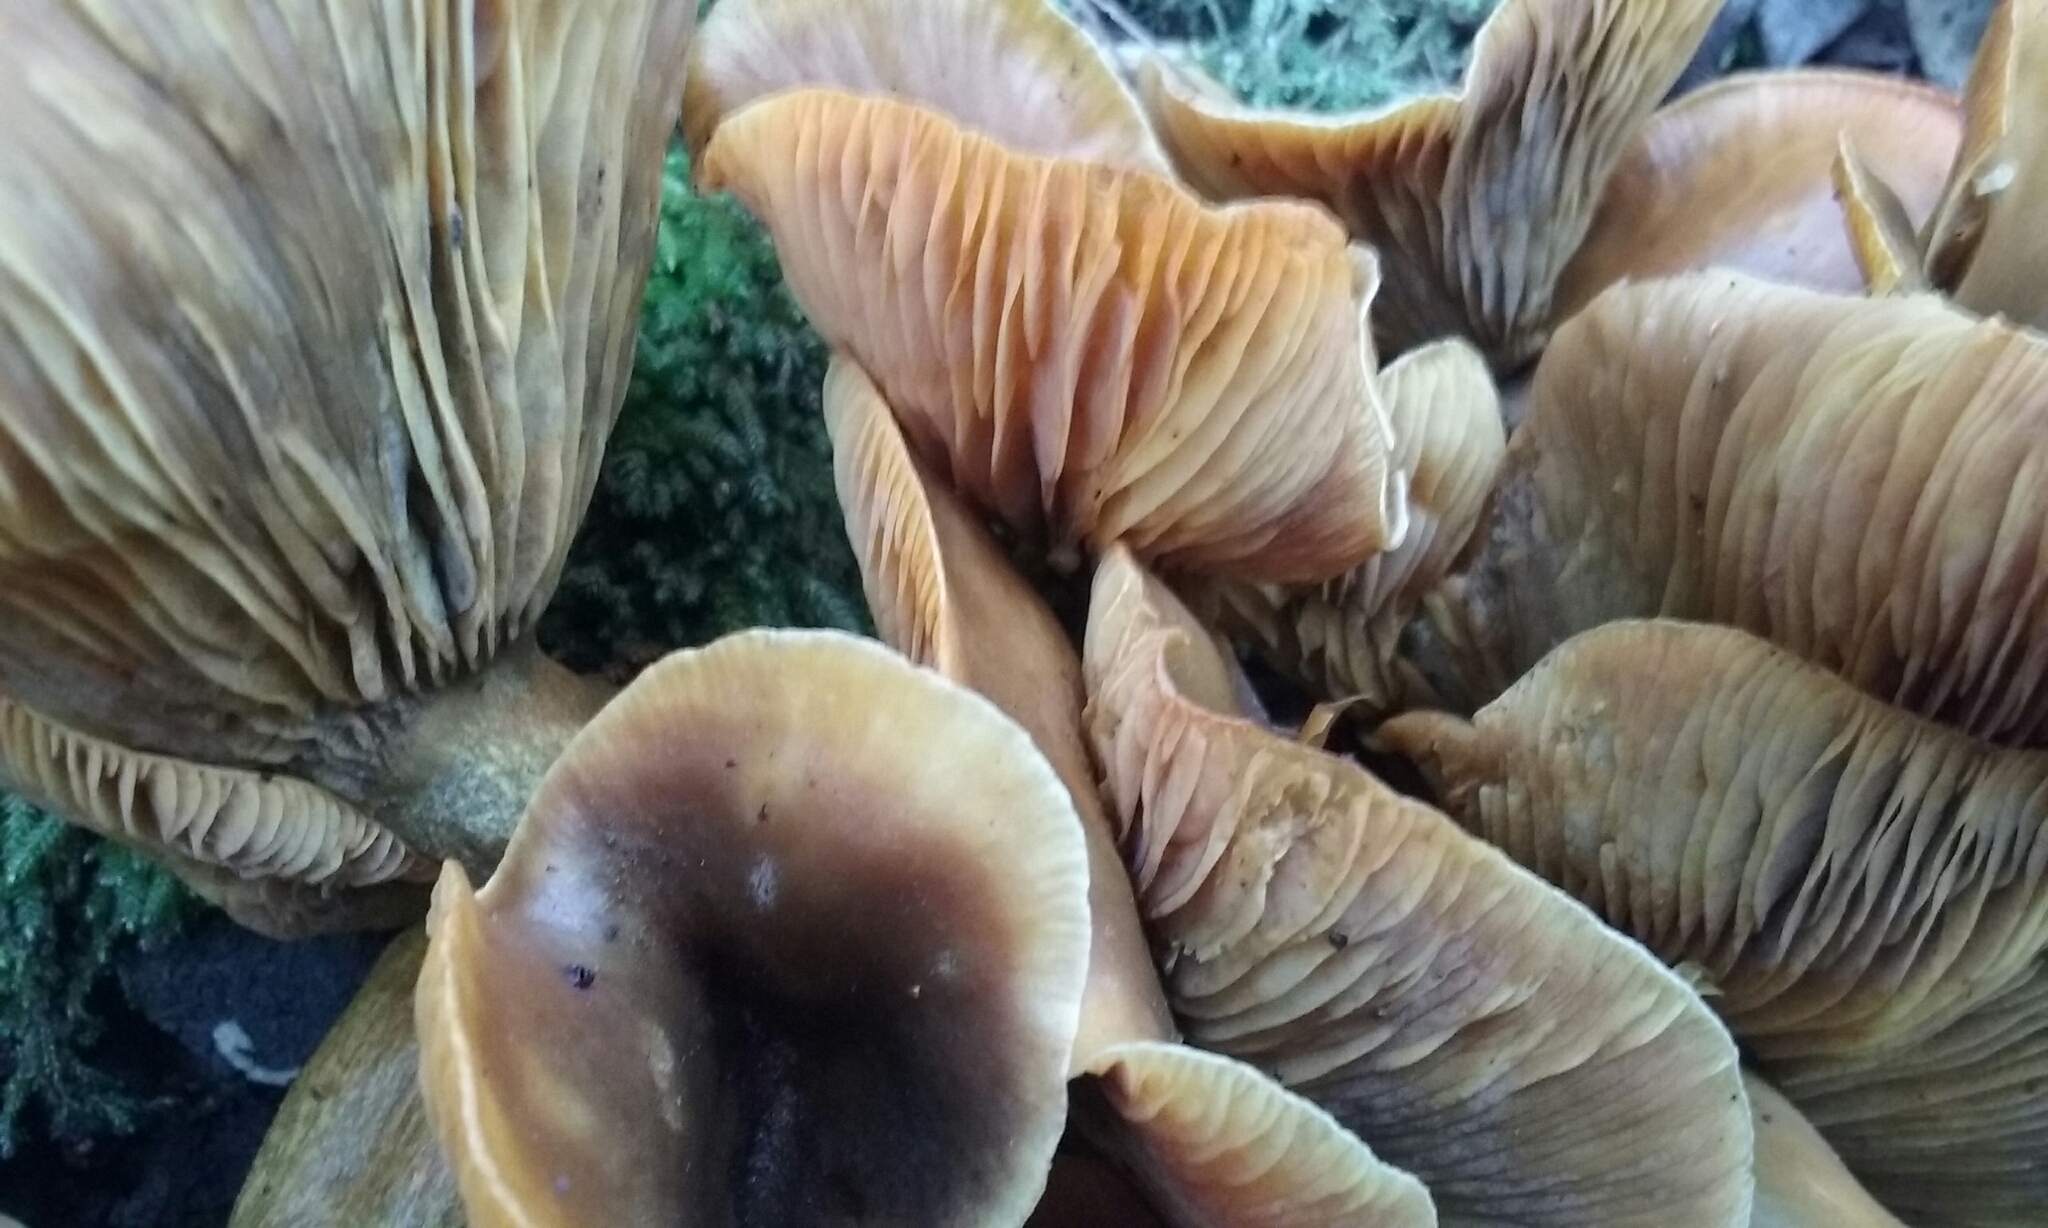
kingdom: Fungi
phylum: Basidiomycota
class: Agaricomycetes
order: Agaricales
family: Omphalotaceae
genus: Omphalotus
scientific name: Omphalotus olivascens
